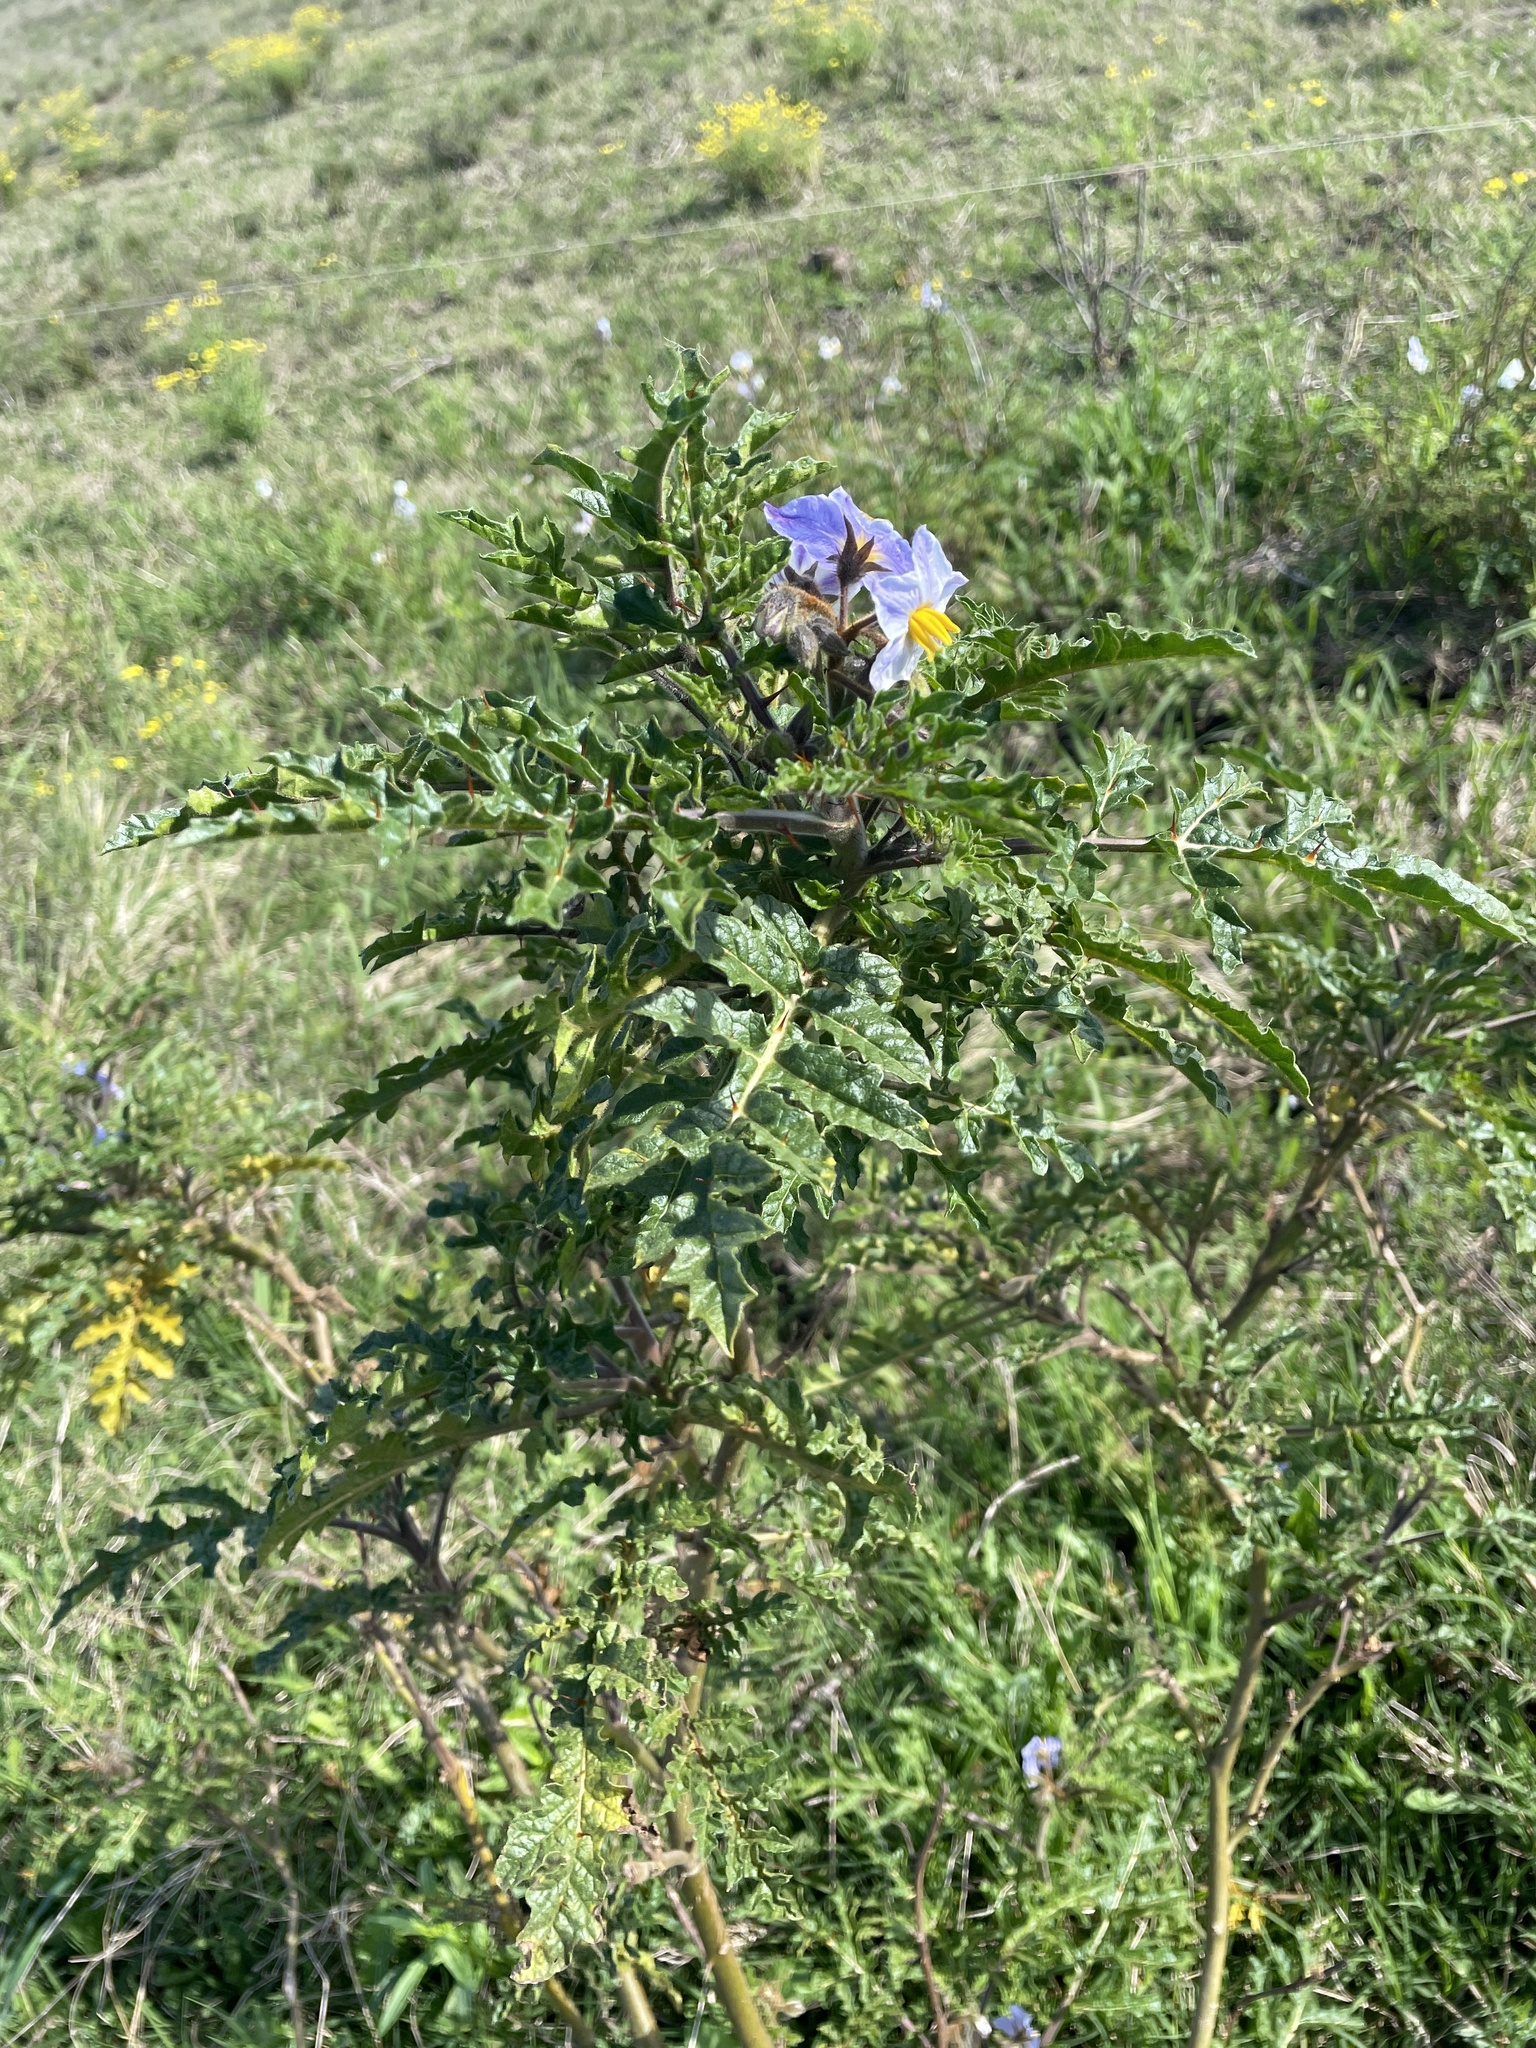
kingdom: Plantae
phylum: Tracheophyta
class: Magnoliopsida
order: Solanales
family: Solanaceae
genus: Solanum
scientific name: Solanum sisymbriifolium
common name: Red buffalo-bur
